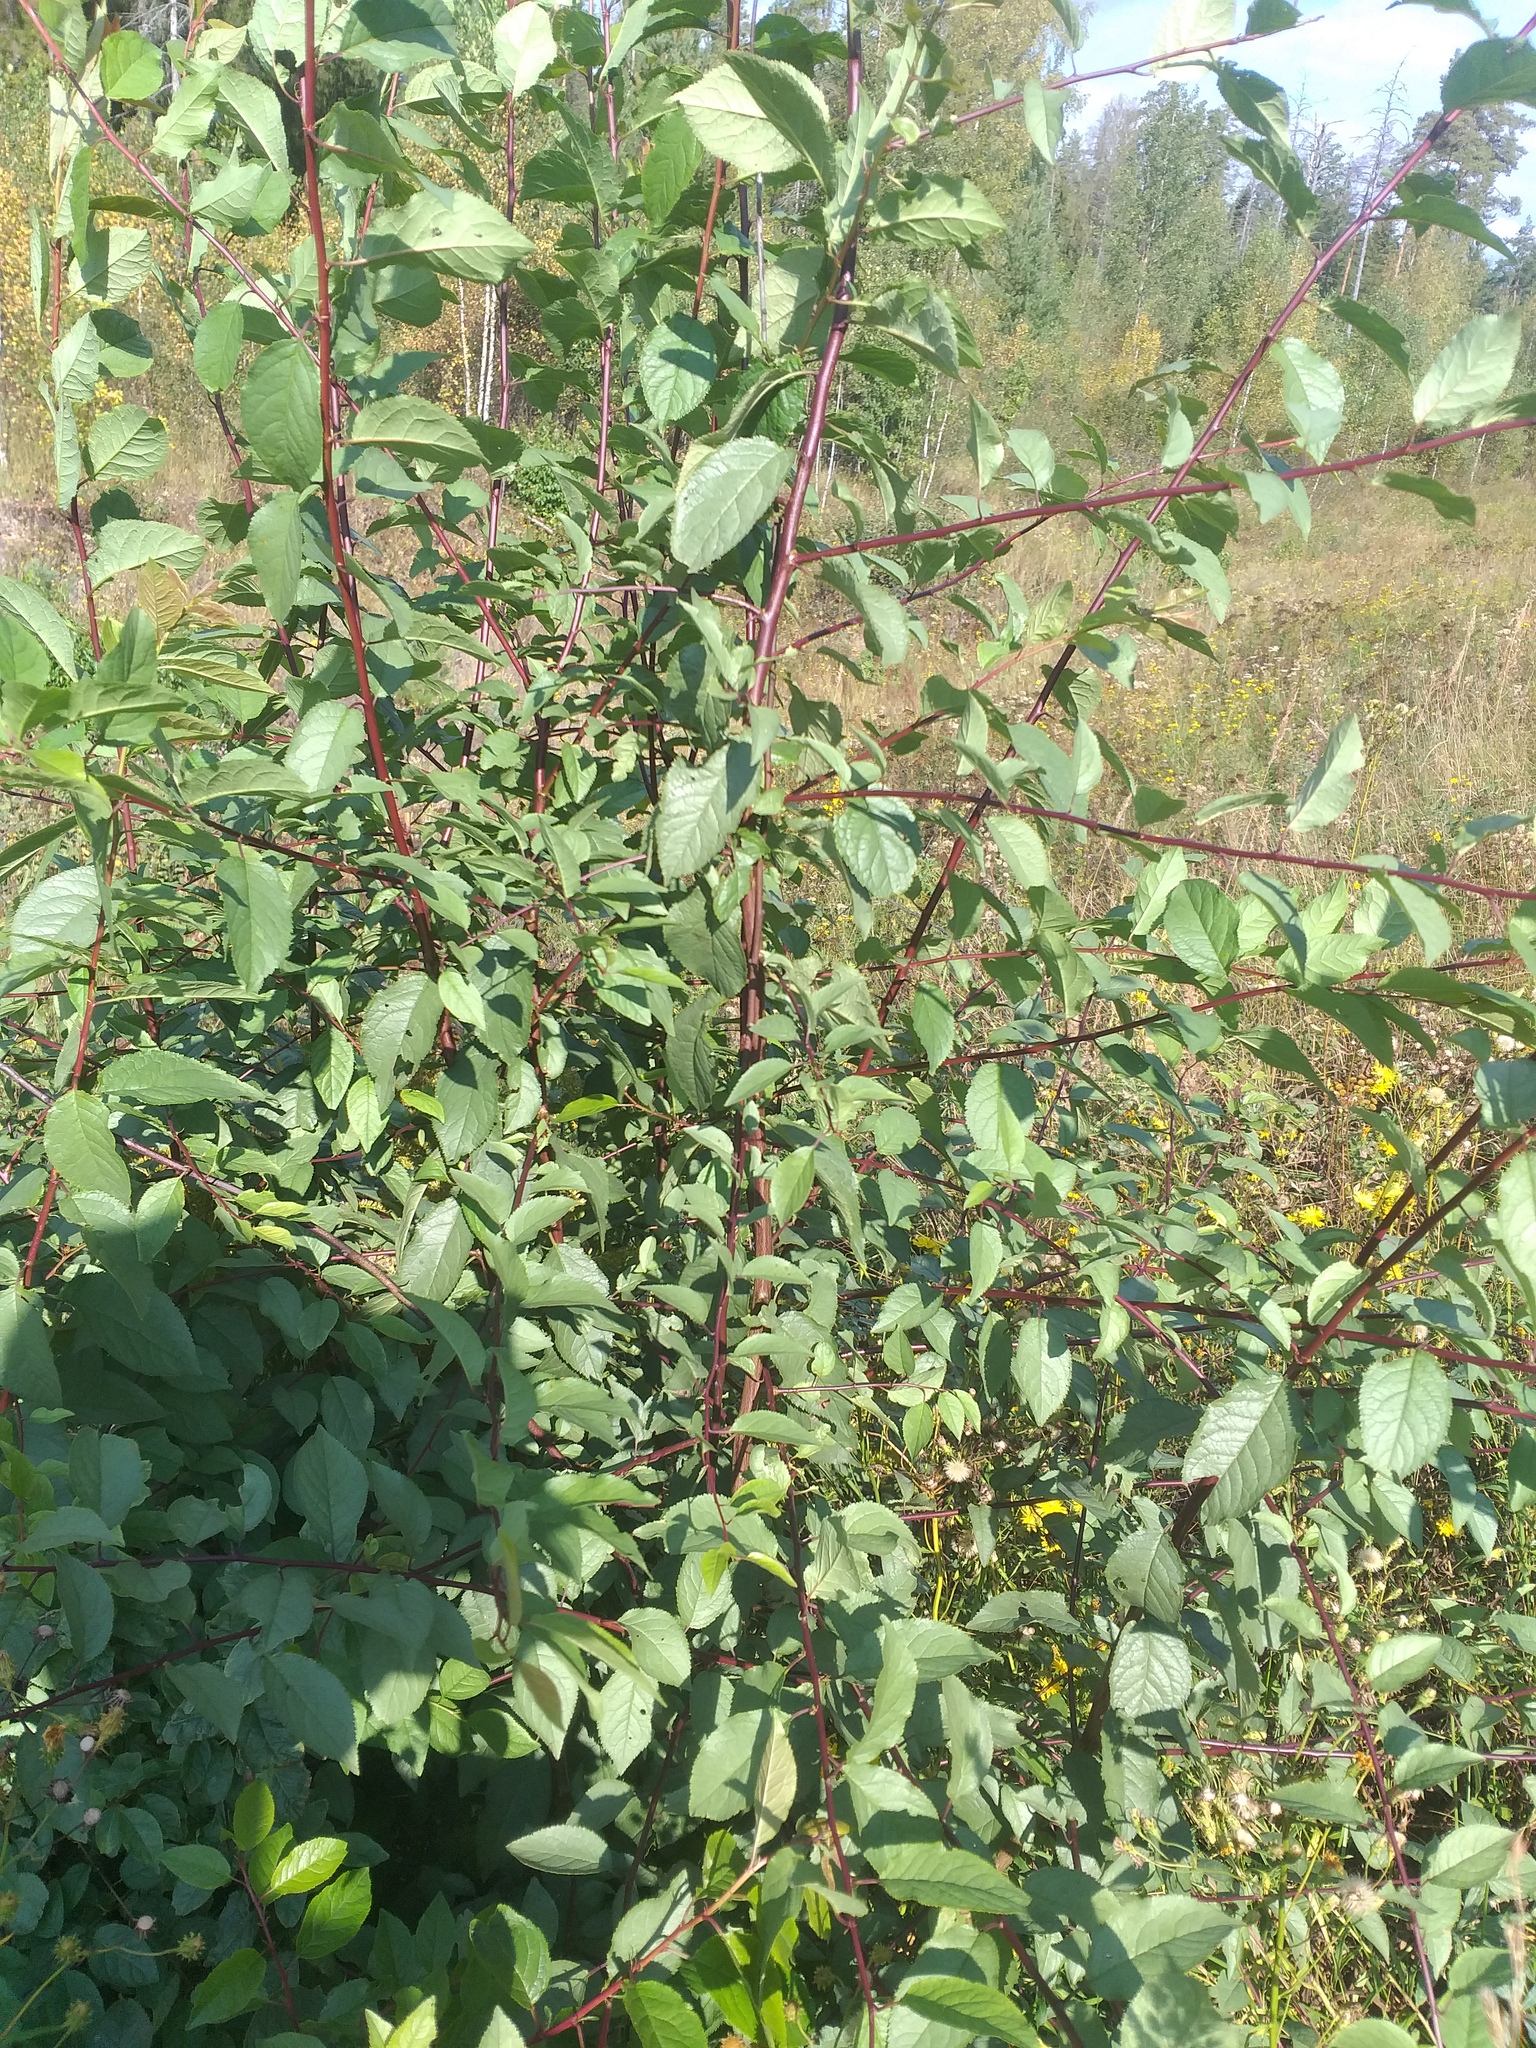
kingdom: Plantae
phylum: Tracheophyta
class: Magnoliopsida
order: Rosales
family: Rosaceae
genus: Prunus
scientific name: Prunus cerasifera
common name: Cherry plum
